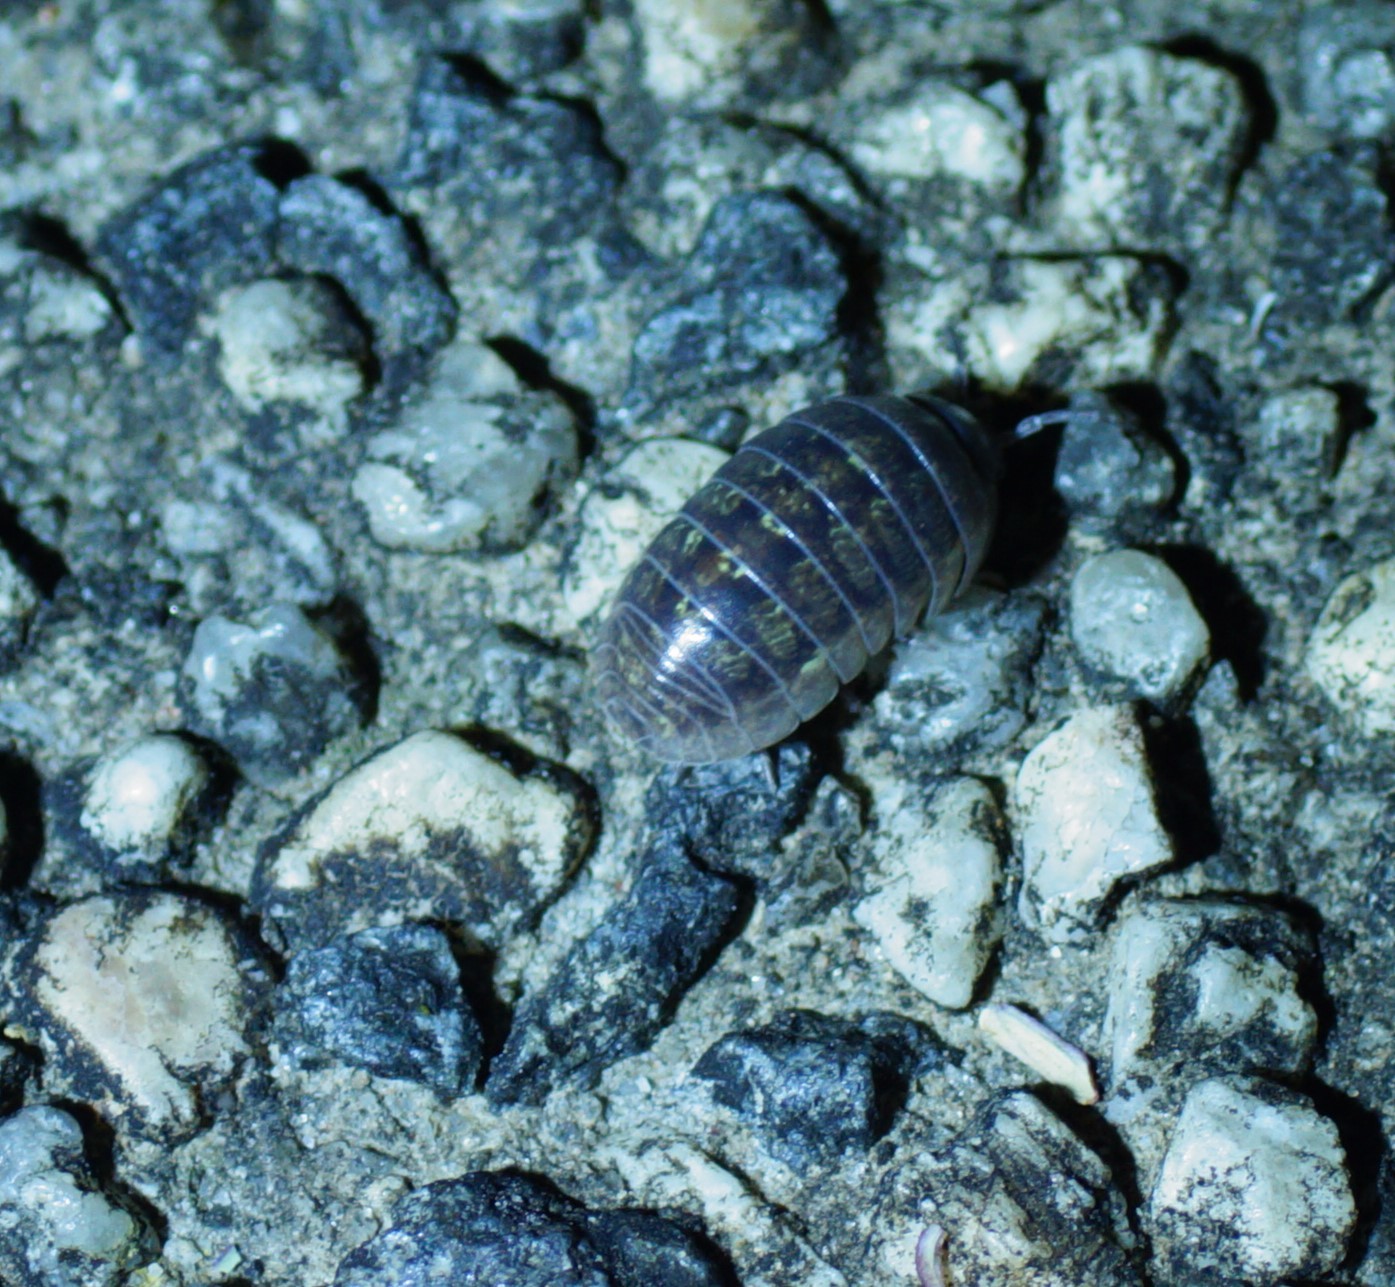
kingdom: Animalia
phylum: Arthropoda
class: Malacostraca
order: Isopoda
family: Armadillidiidae
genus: Armadillidium
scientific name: Armadillidium vulgare
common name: Common pill woodlouse
